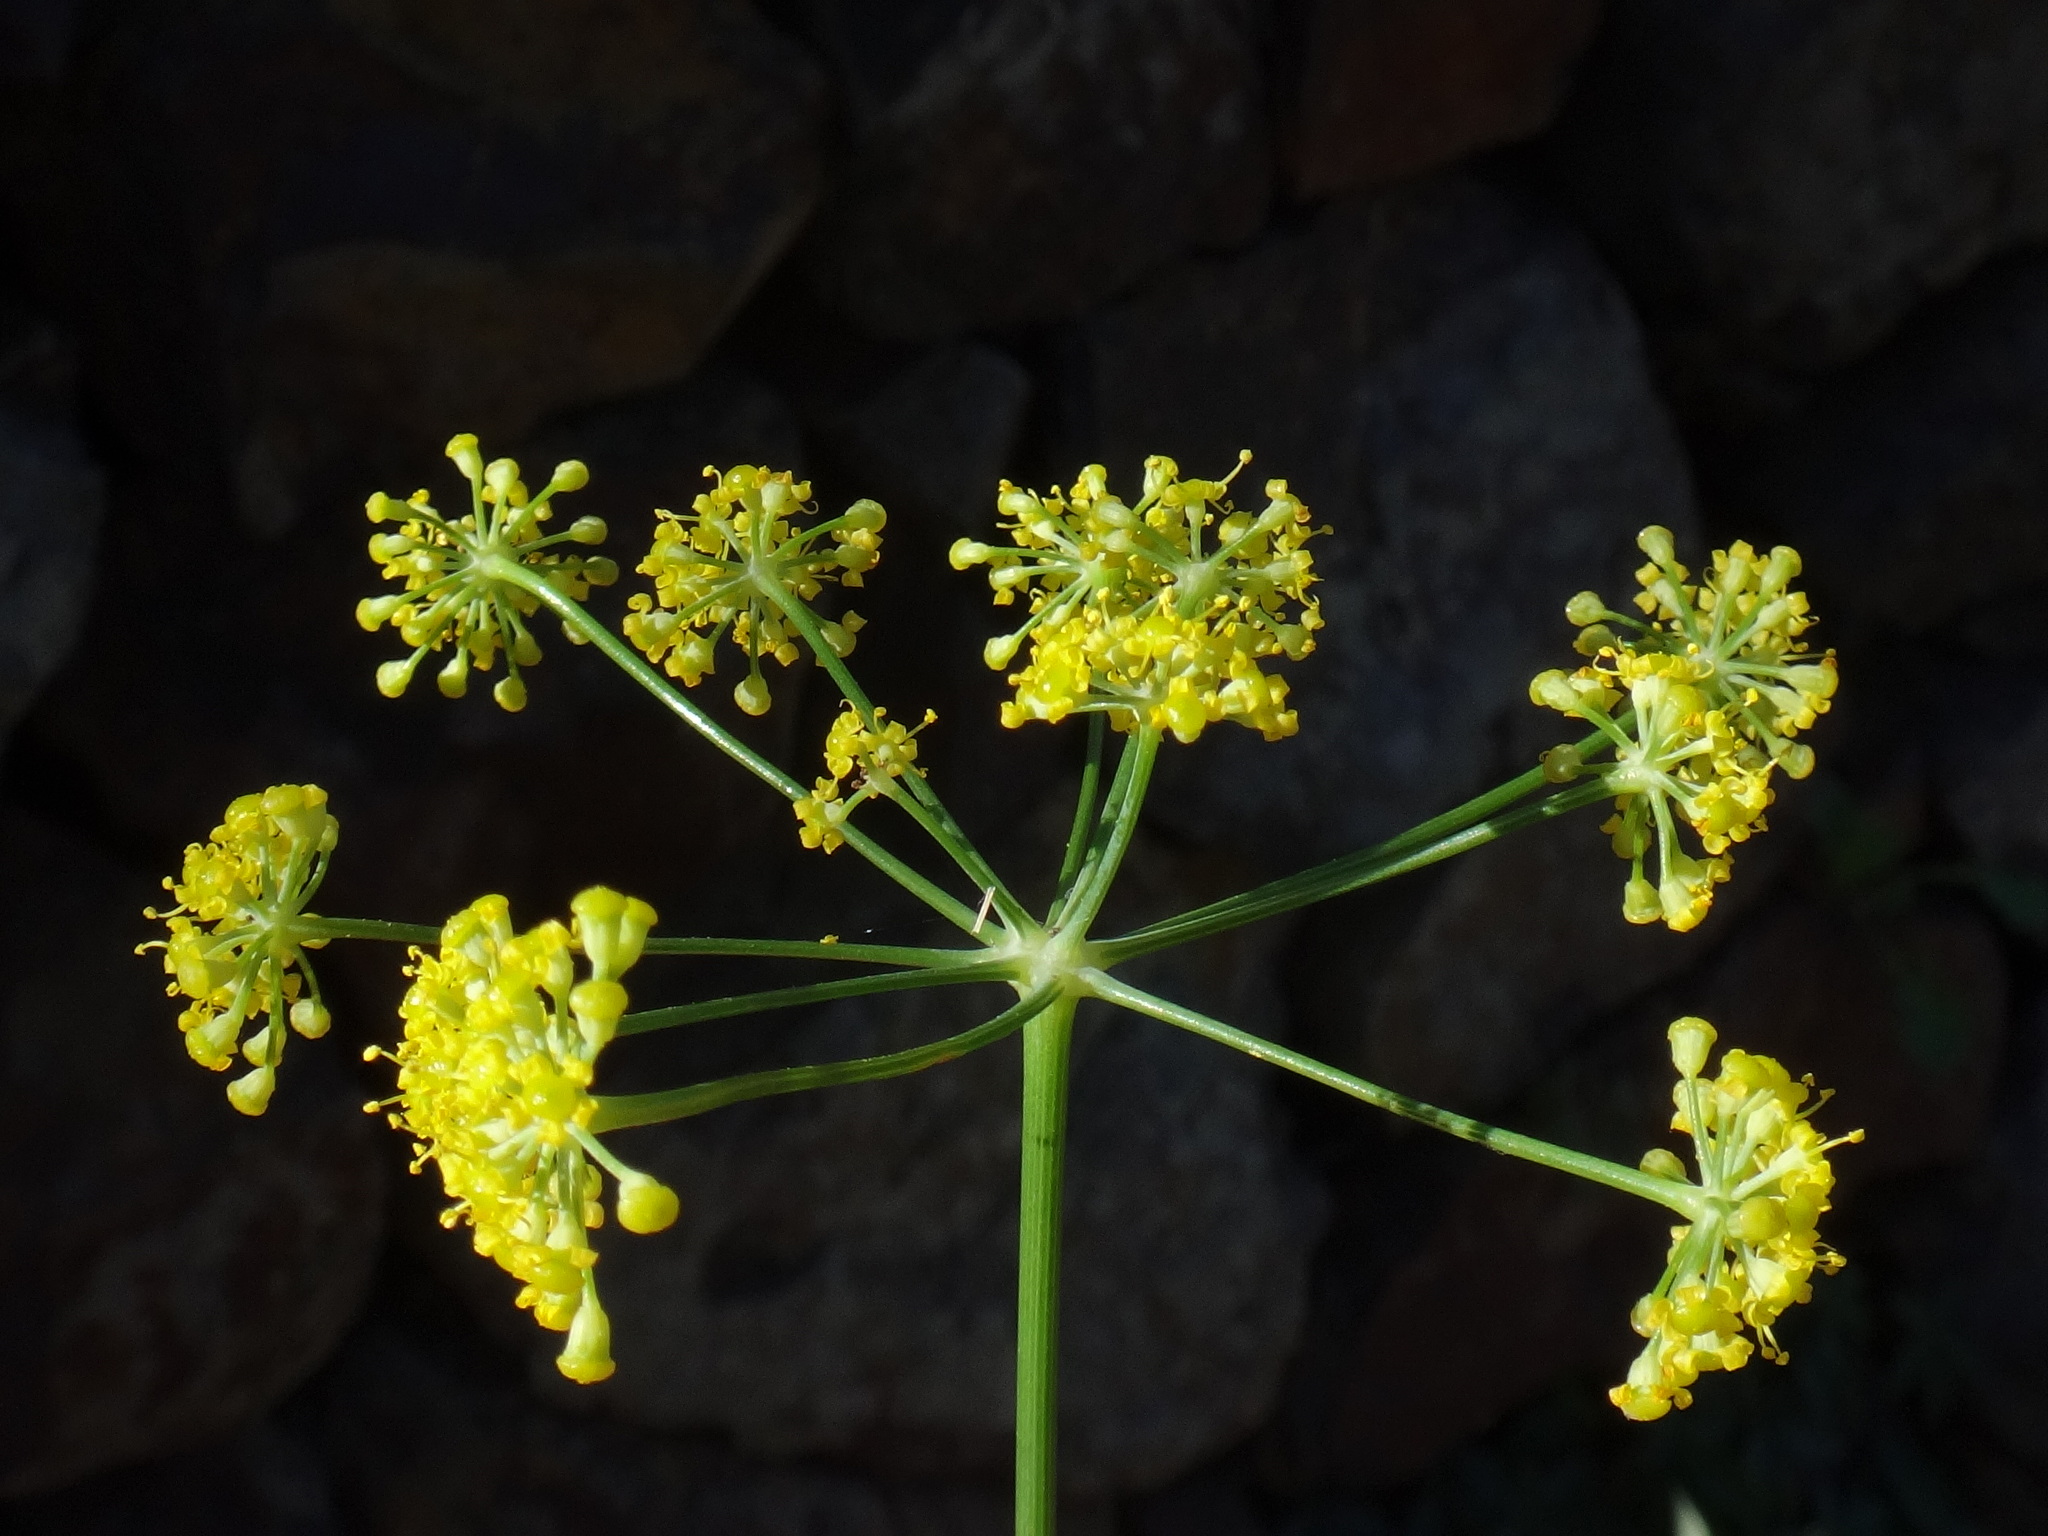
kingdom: Plantae
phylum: Tracheophyta
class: Magnoliopsida
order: Apiales
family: Apiaceae
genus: Foeniculum
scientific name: Foeniculum vulgare
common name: Fennel
